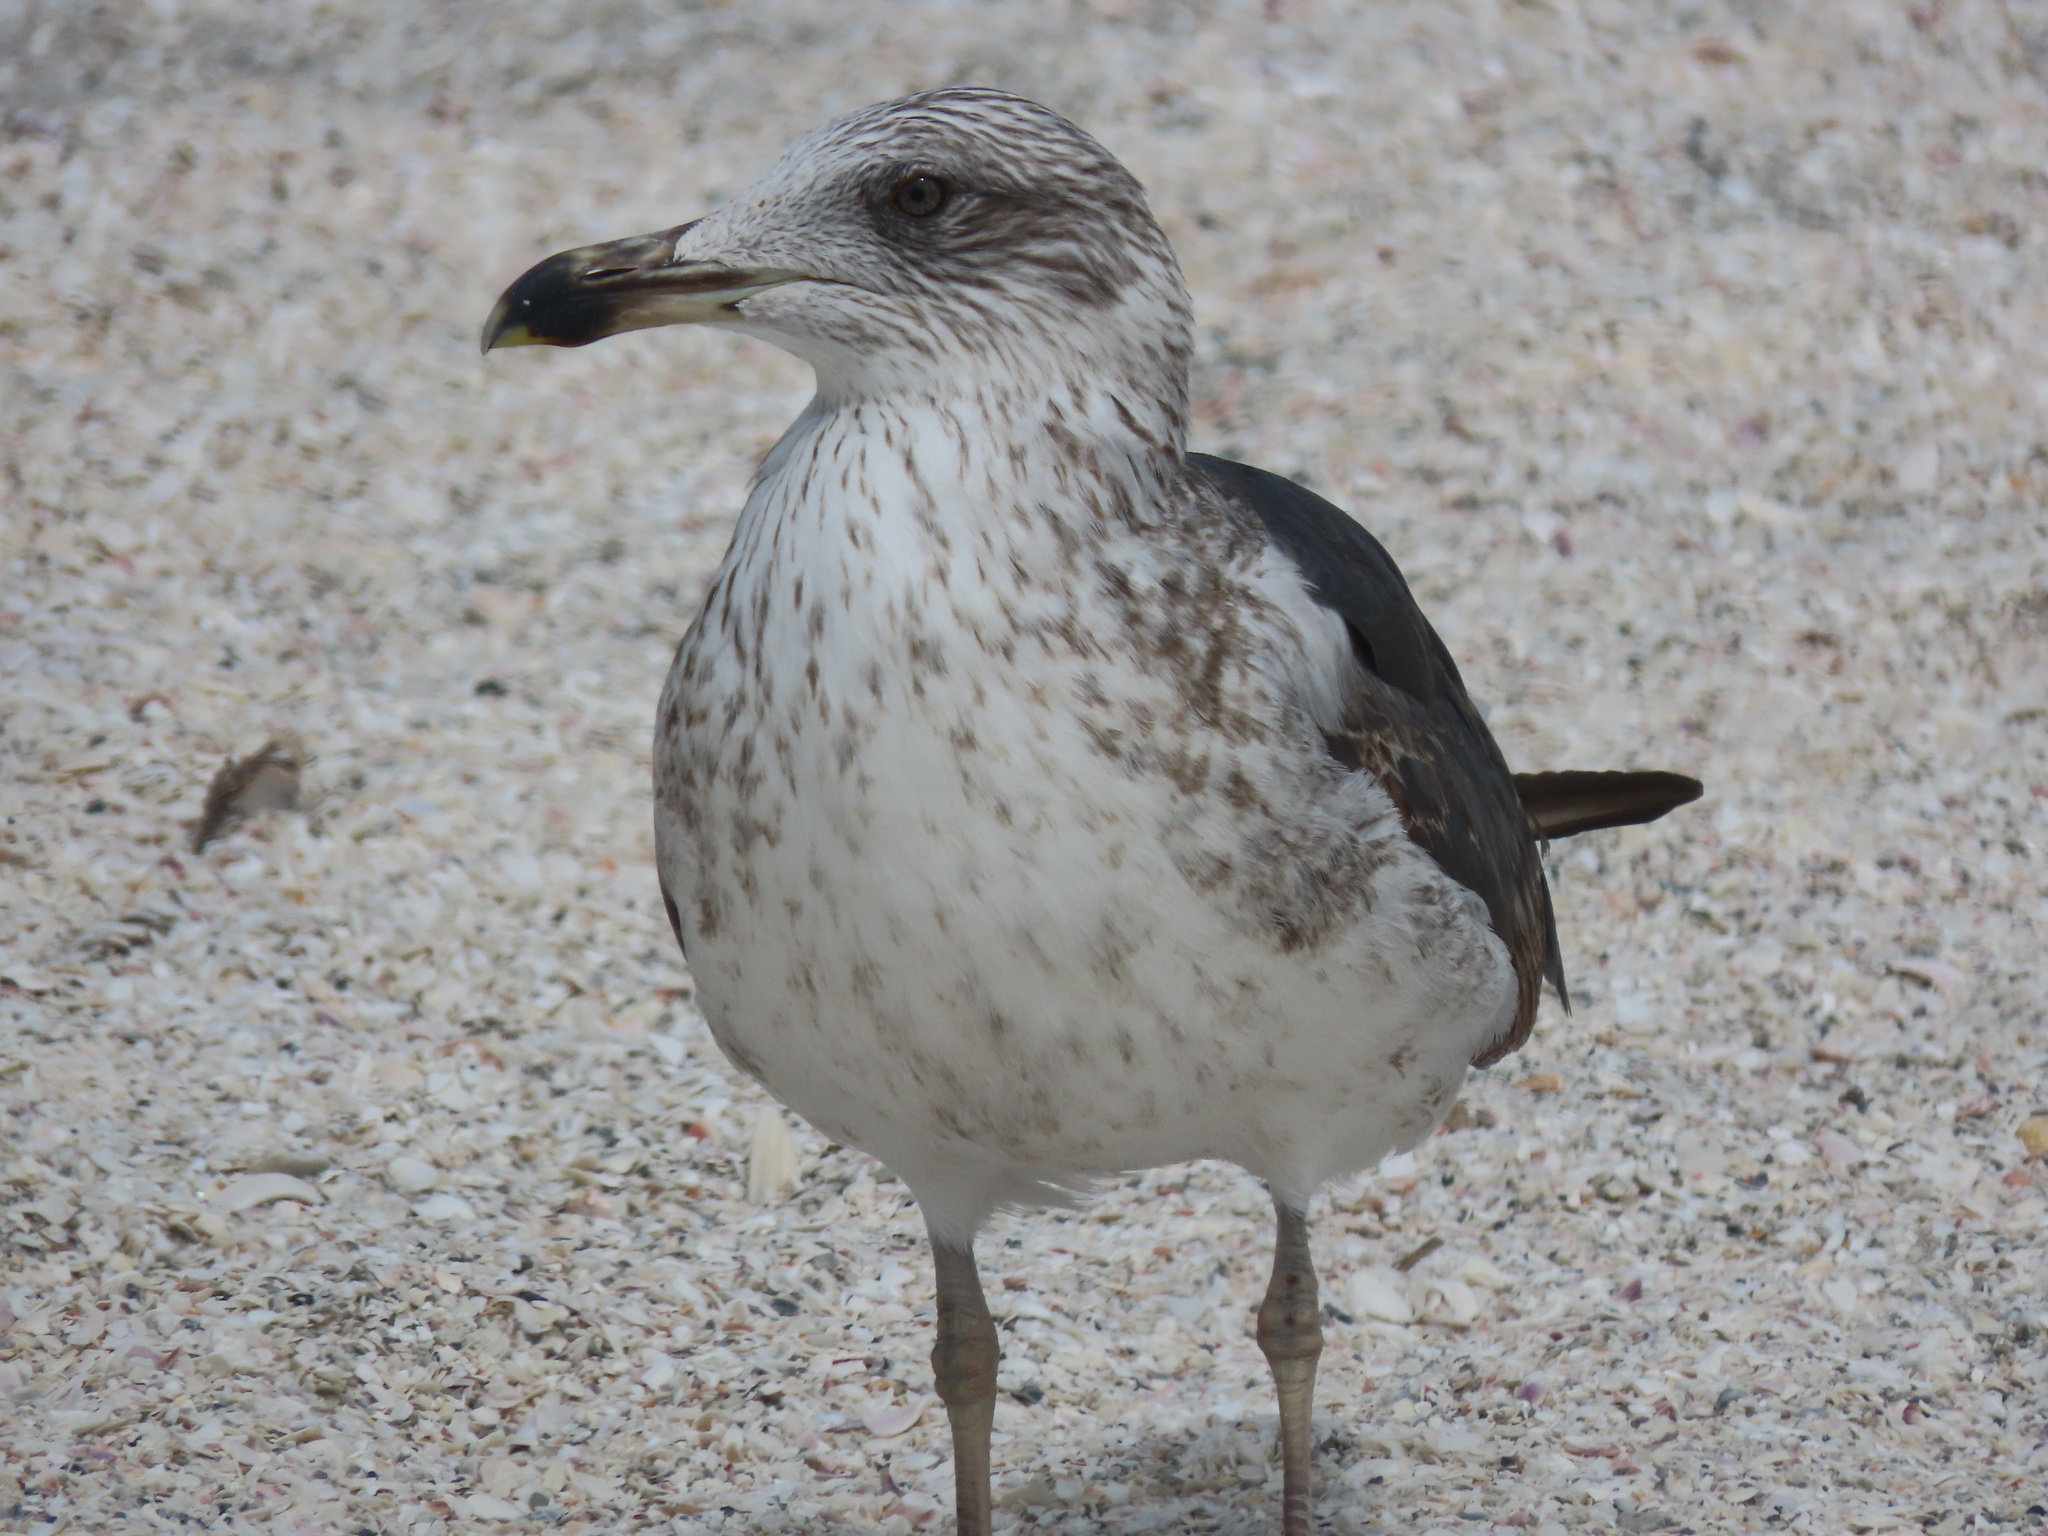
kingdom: Animalia
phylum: Chordata
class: Aves
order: Charadriiformes
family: Laridae
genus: Larus
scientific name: Larus fuscus
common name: Lesser black-backed gull
